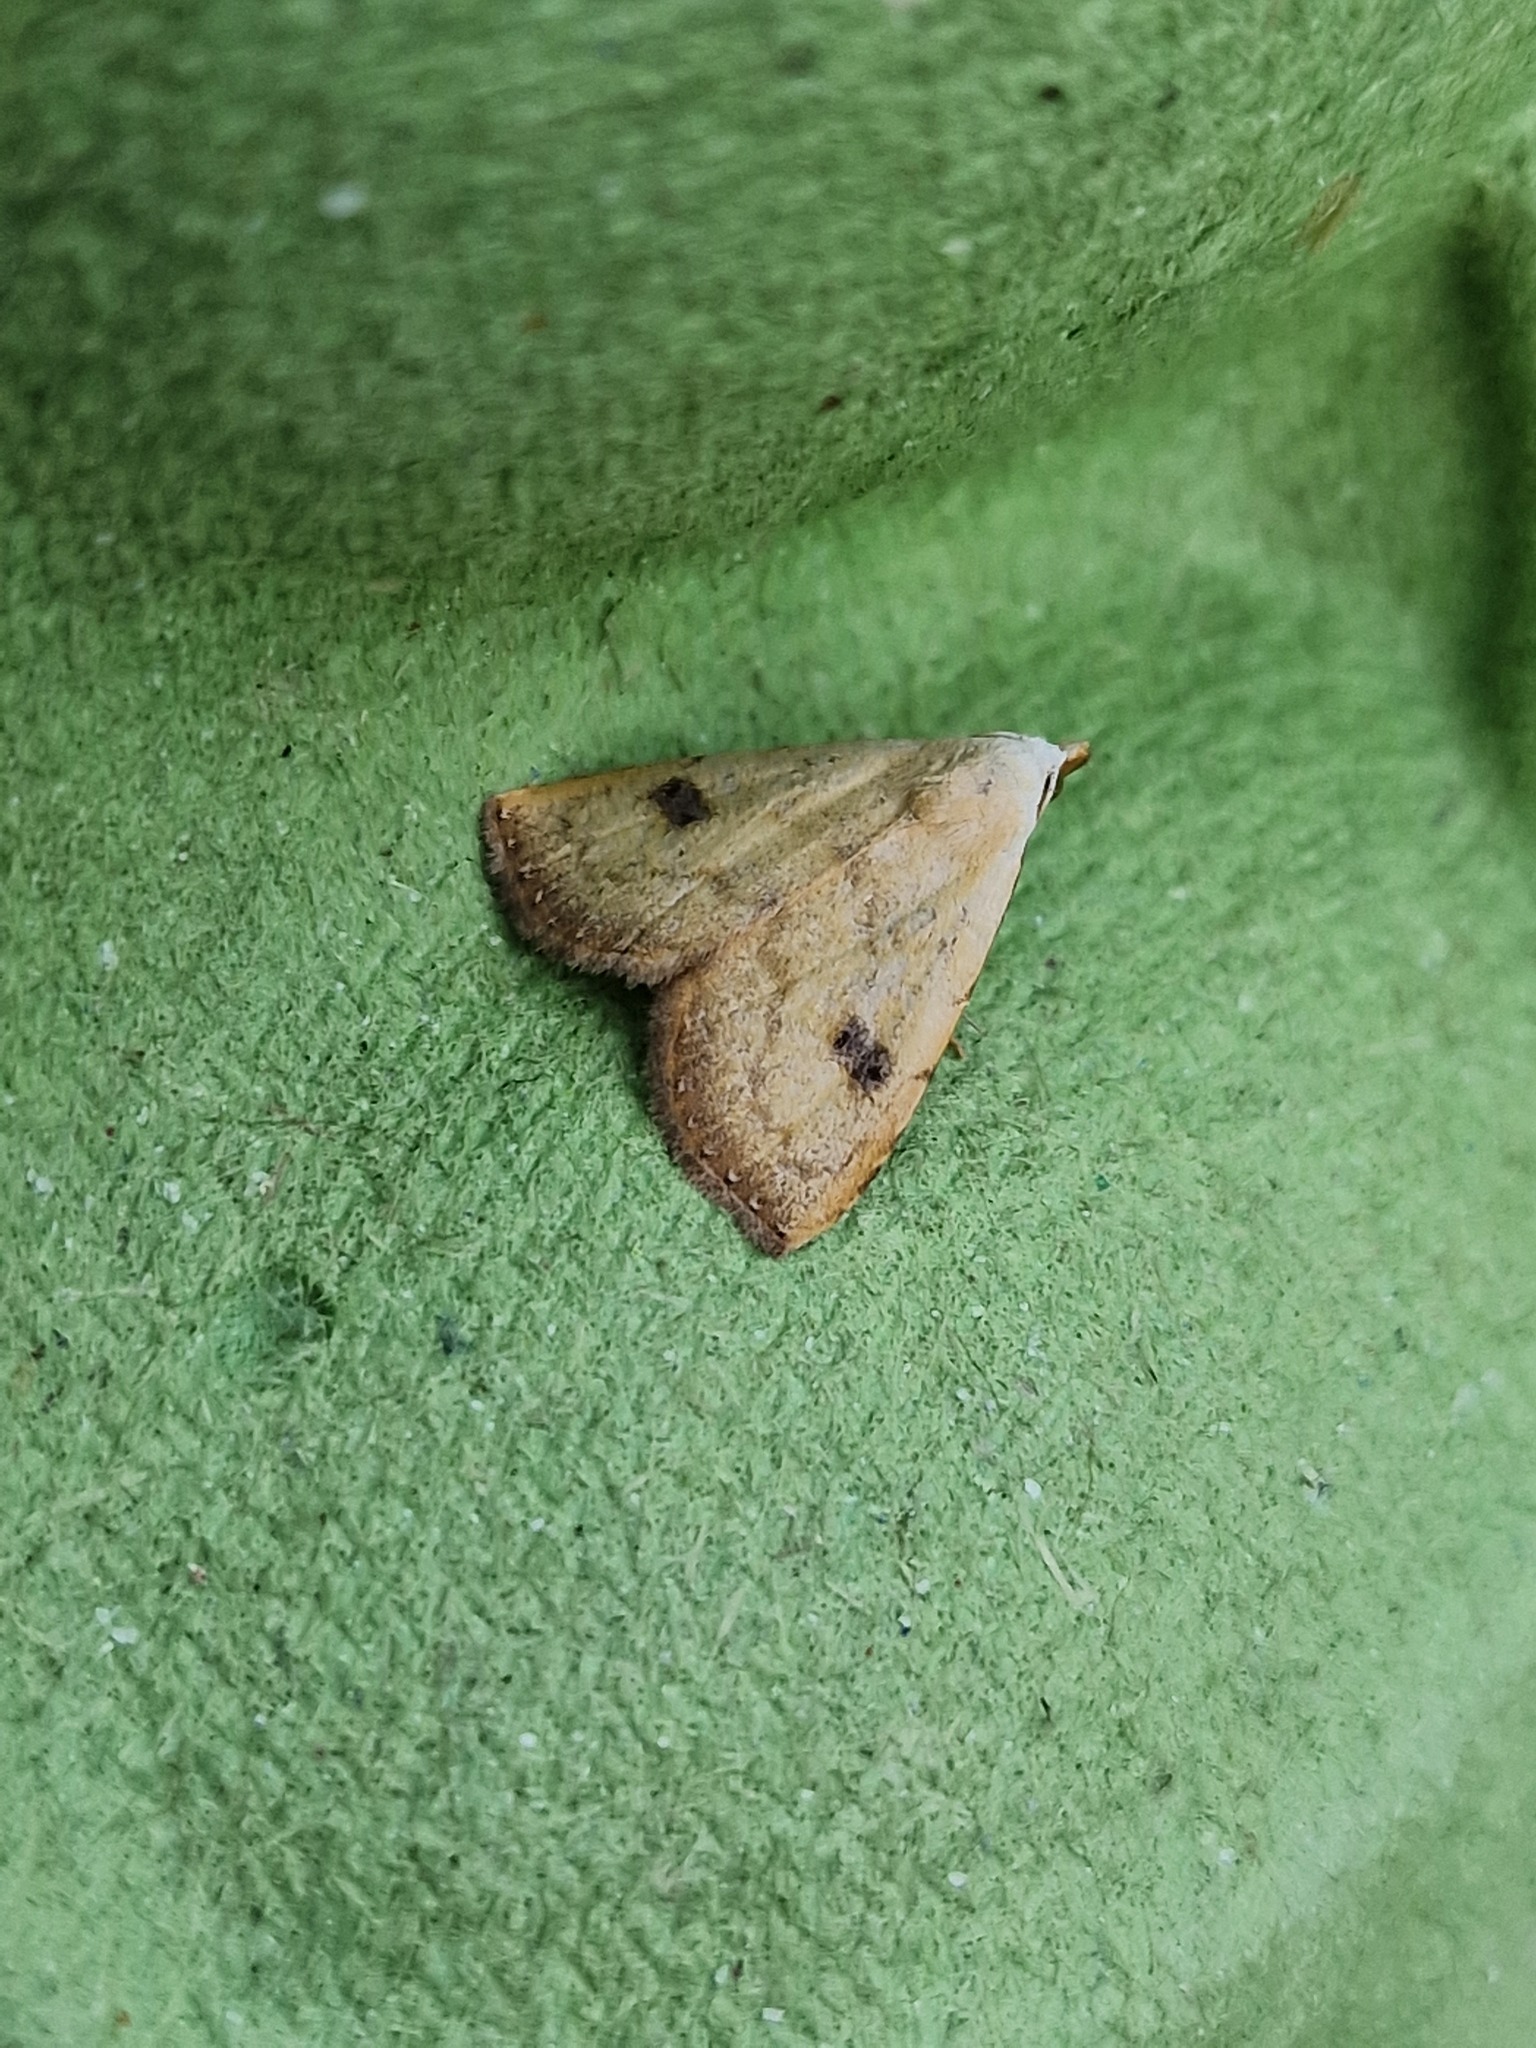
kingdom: Animalia
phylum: Arthropoda
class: Insecta
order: Lepidoptera
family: Erebidae
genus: Rivula
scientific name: Rivula sericealis
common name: Straw dot
